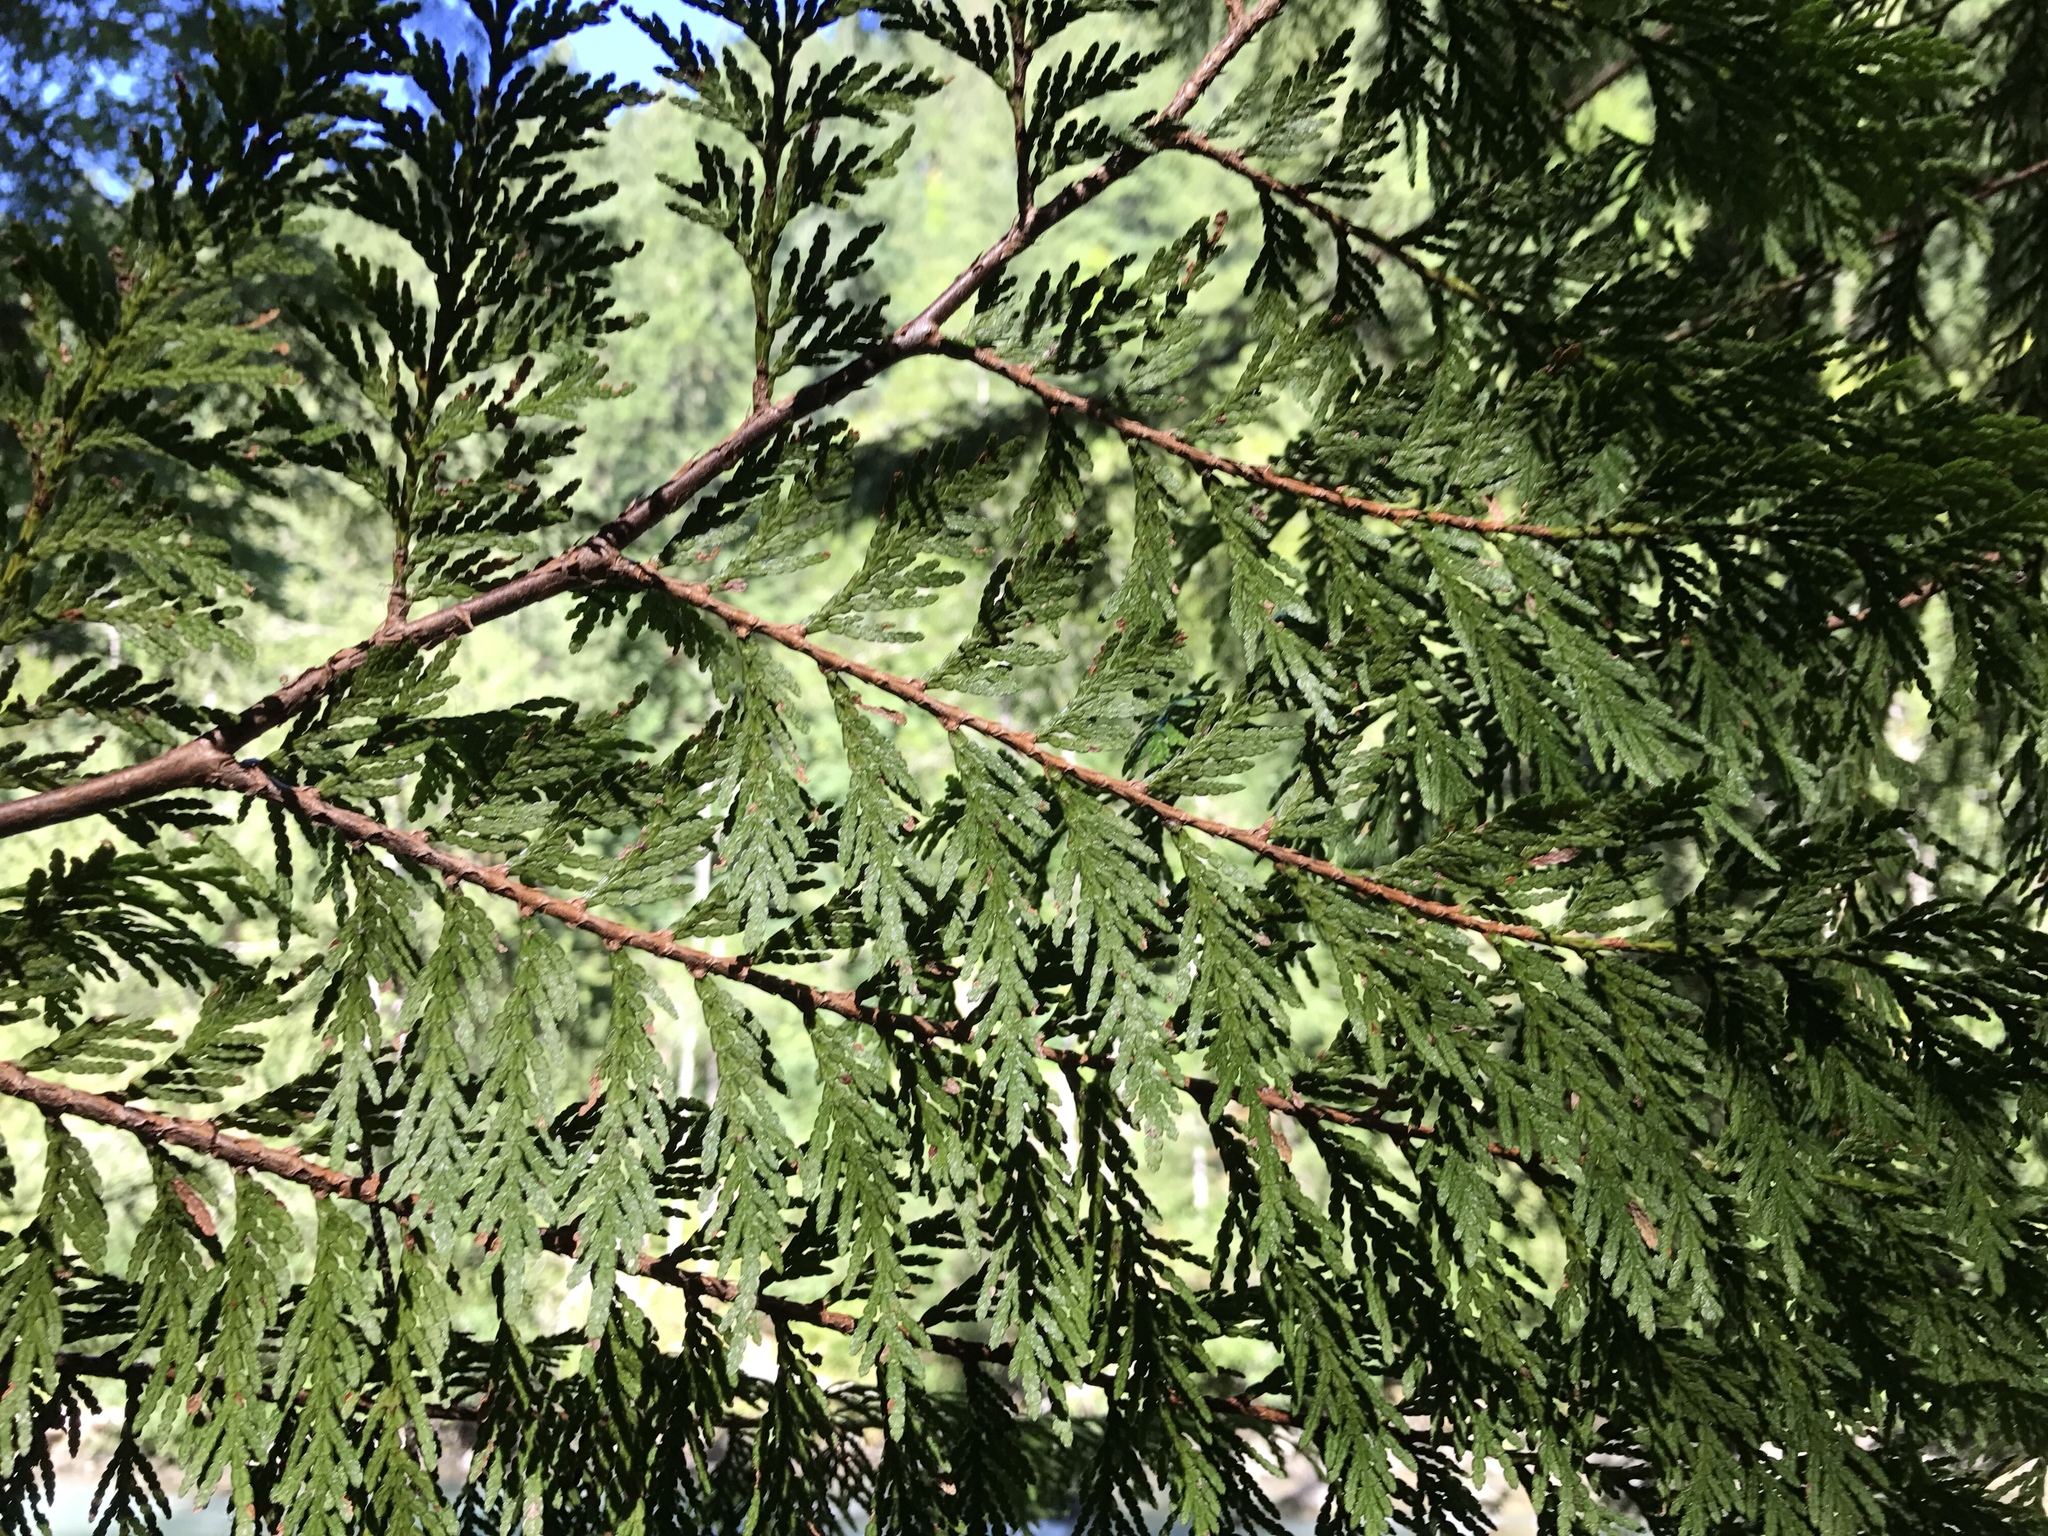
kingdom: Plantae
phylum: Tracheophyta
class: Pinopsida
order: Pinales
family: Cupressaceae
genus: Thuja
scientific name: Thuja plicata
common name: Western red-cedar
